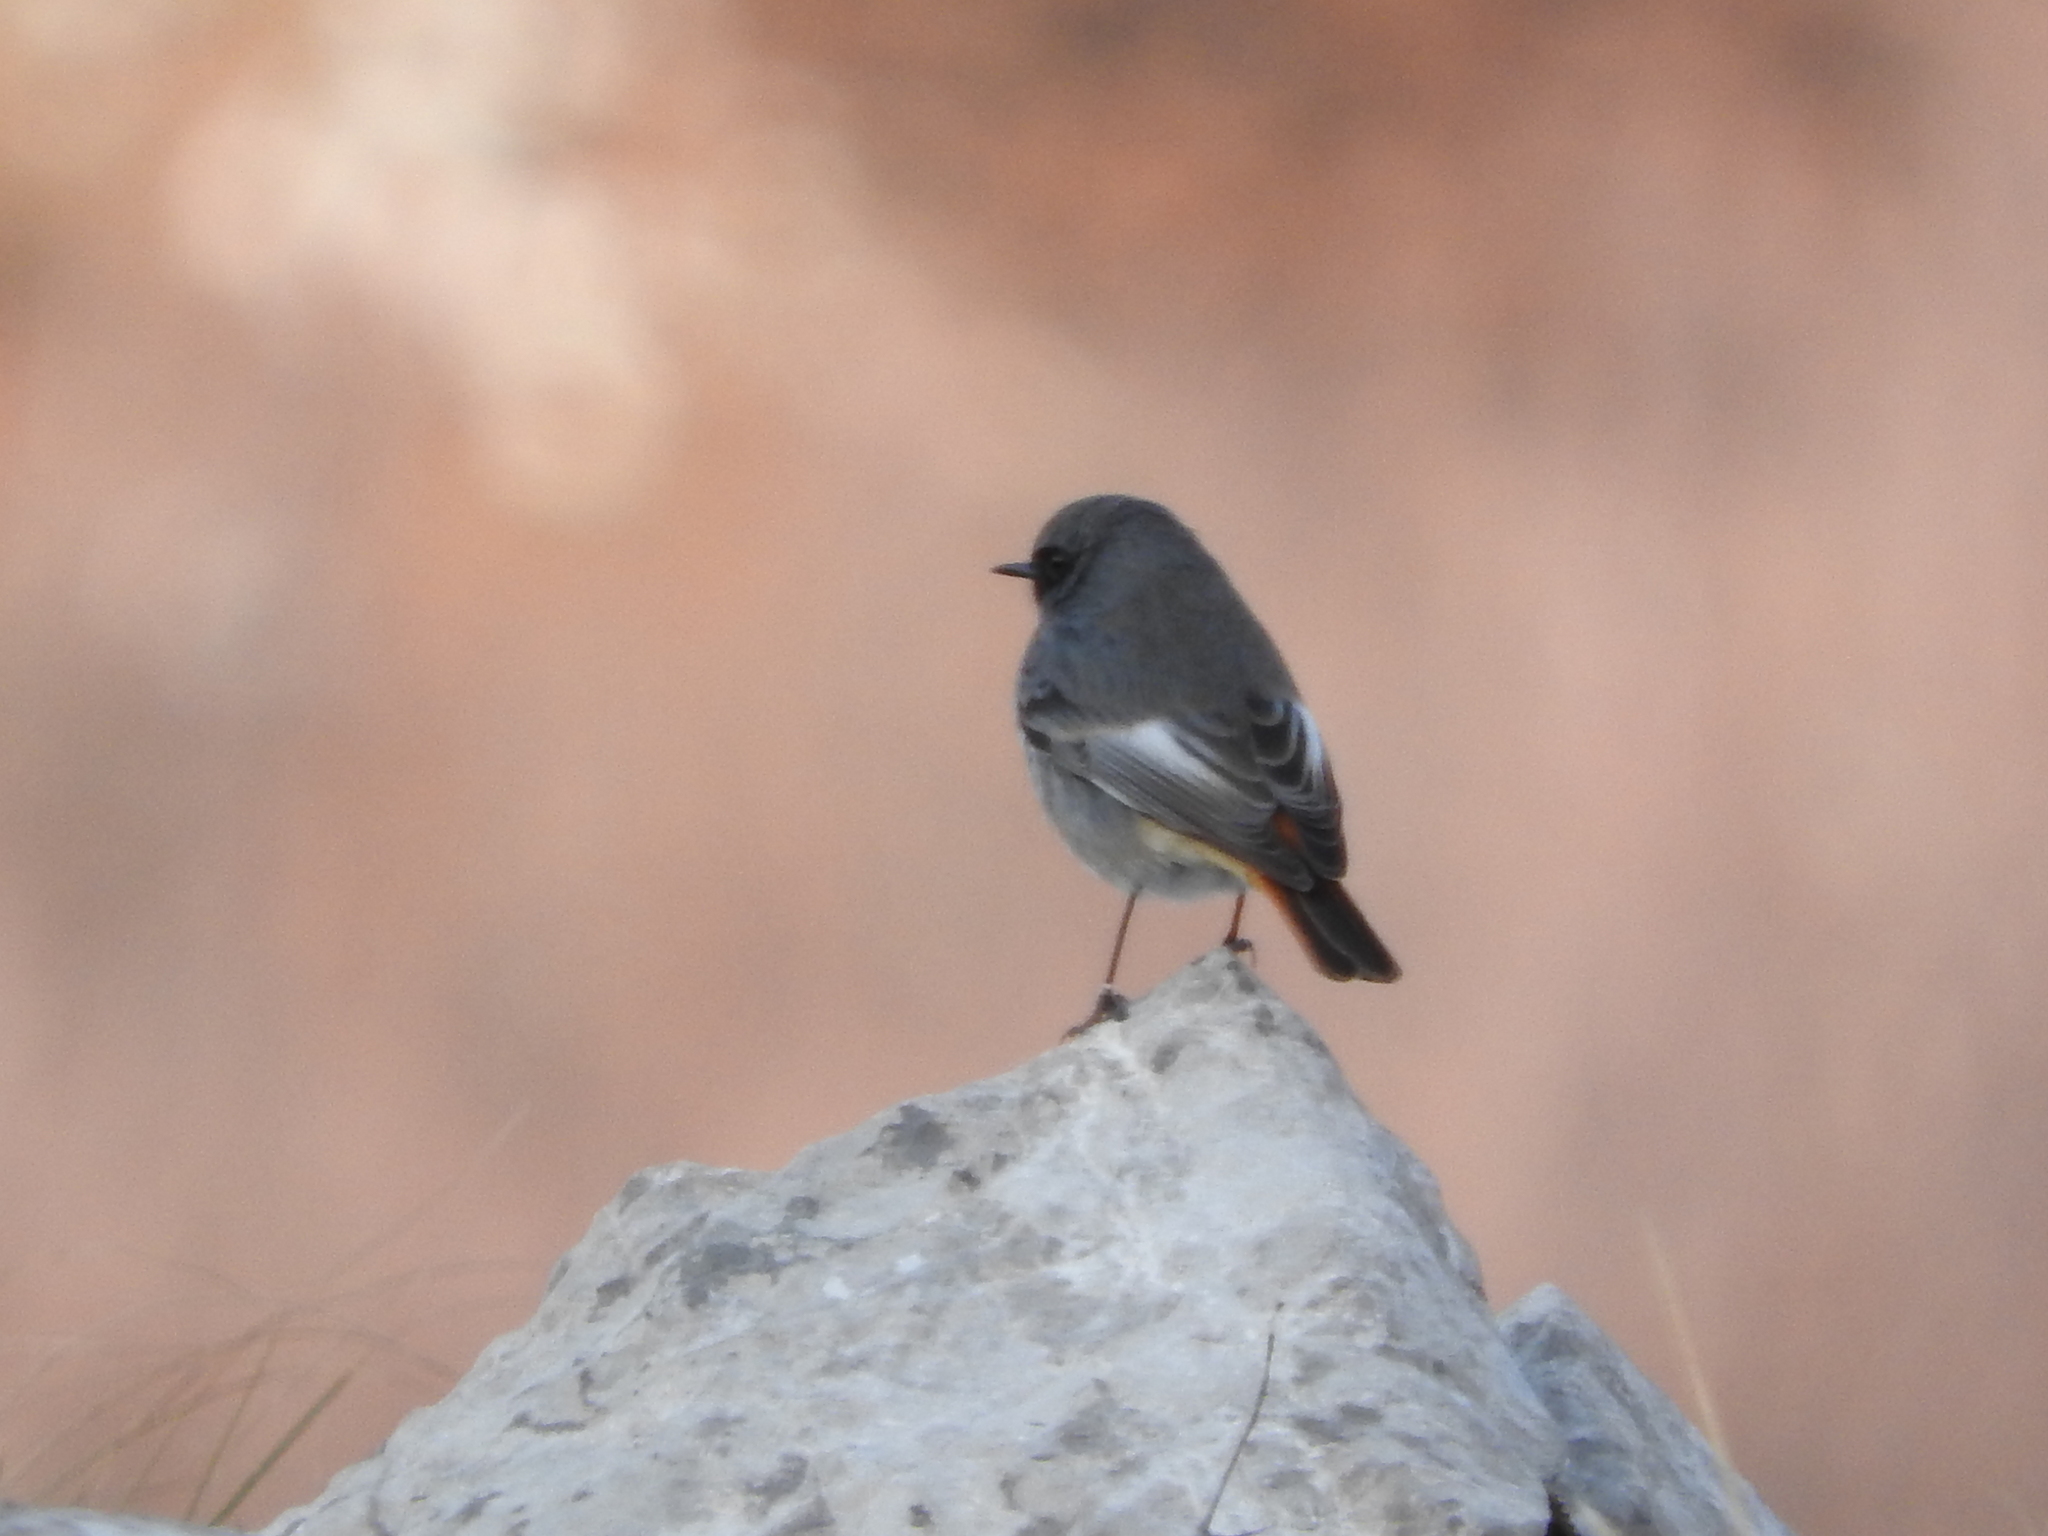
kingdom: Animalia
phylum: Chordata
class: Aves
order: Passeriformes
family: Muscicapidae
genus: Phoenicurus
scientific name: Phoenicurus ochruros
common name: Black redstart
